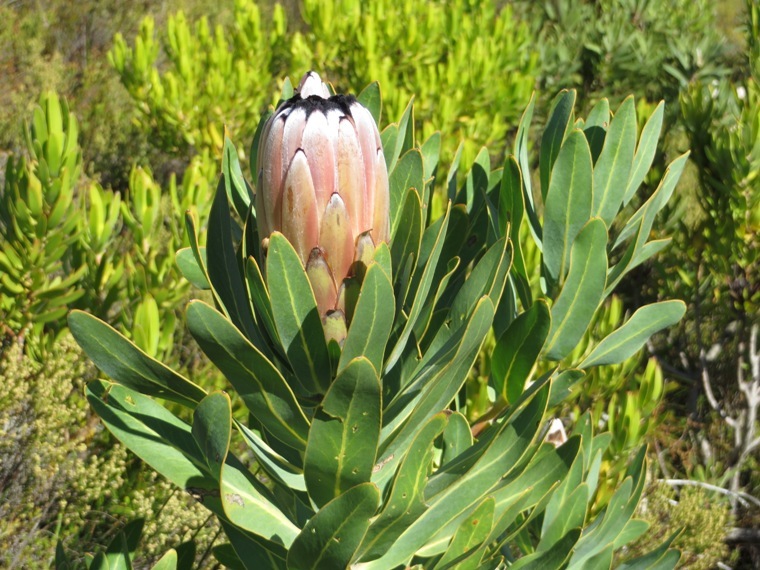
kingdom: Plantae
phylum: Tracheophyta
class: Magnoliopsida
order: Proteales
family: Proteaceae
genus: Protea
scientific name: Protea neriifolia
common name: Blue sugarbush
